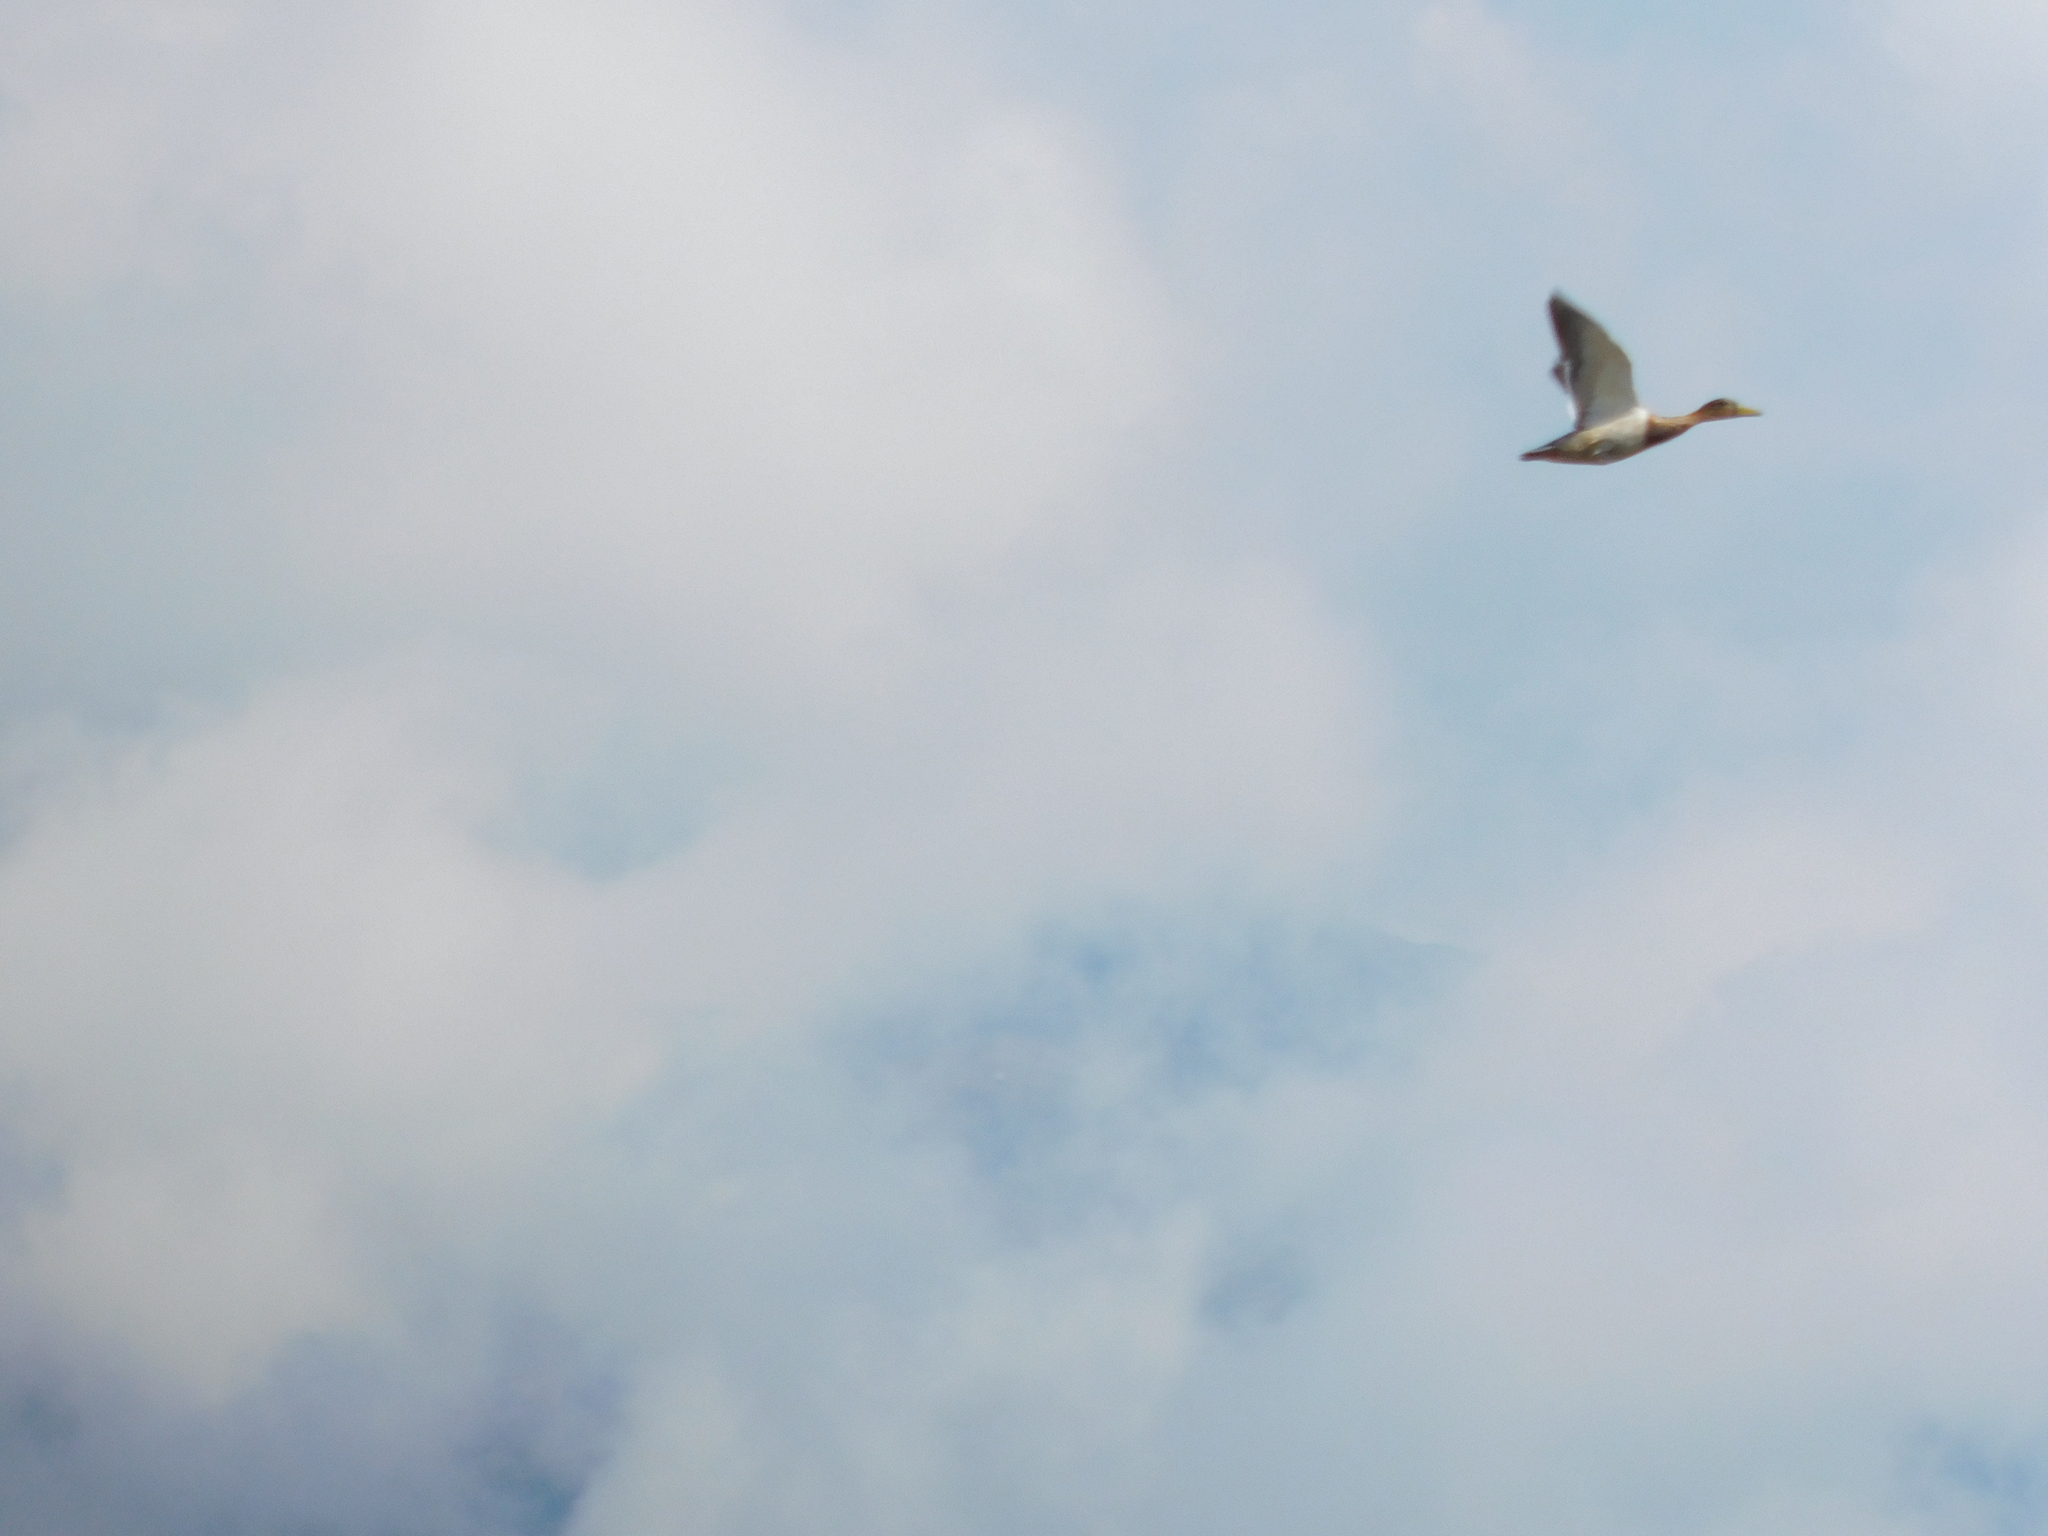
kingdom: Animalia
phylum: Chordata
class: Aves
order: Anseriformes
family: Anatidae
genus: Anas
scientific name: Anas platyrhynchos
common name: Mallard
